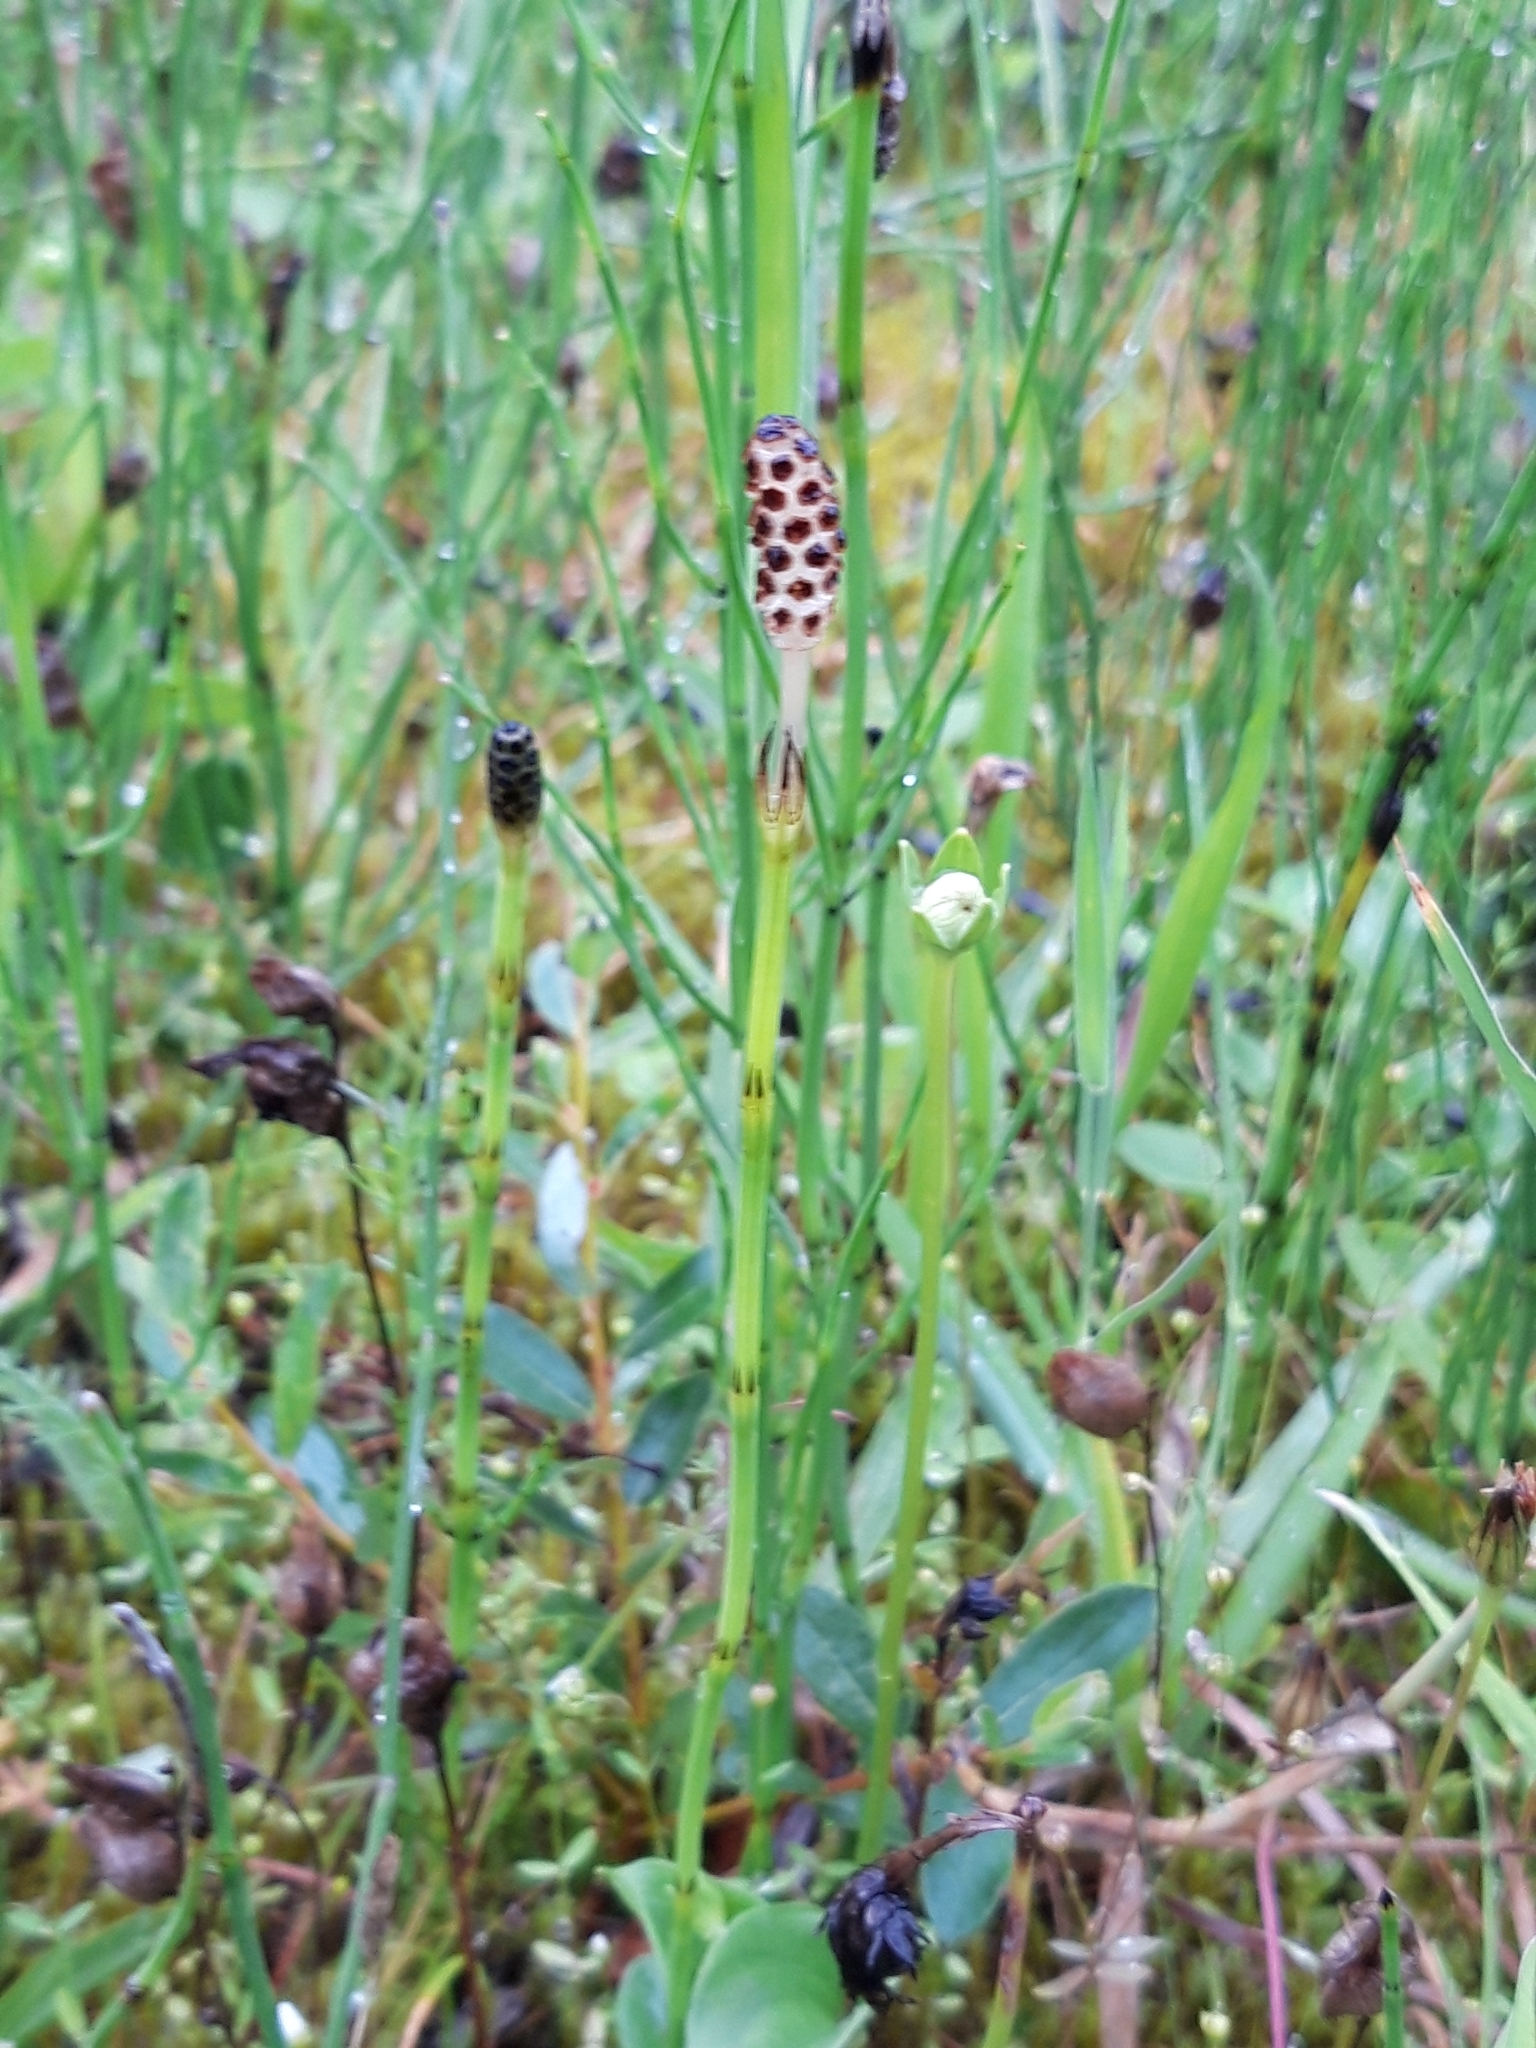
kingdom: Plantae
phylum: Tracheophyta
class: Polypodiopsida
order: Equisetales
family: Equisetaceae
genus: Equisetum
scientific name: Equisetum palustre
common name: Marsh horsetail
